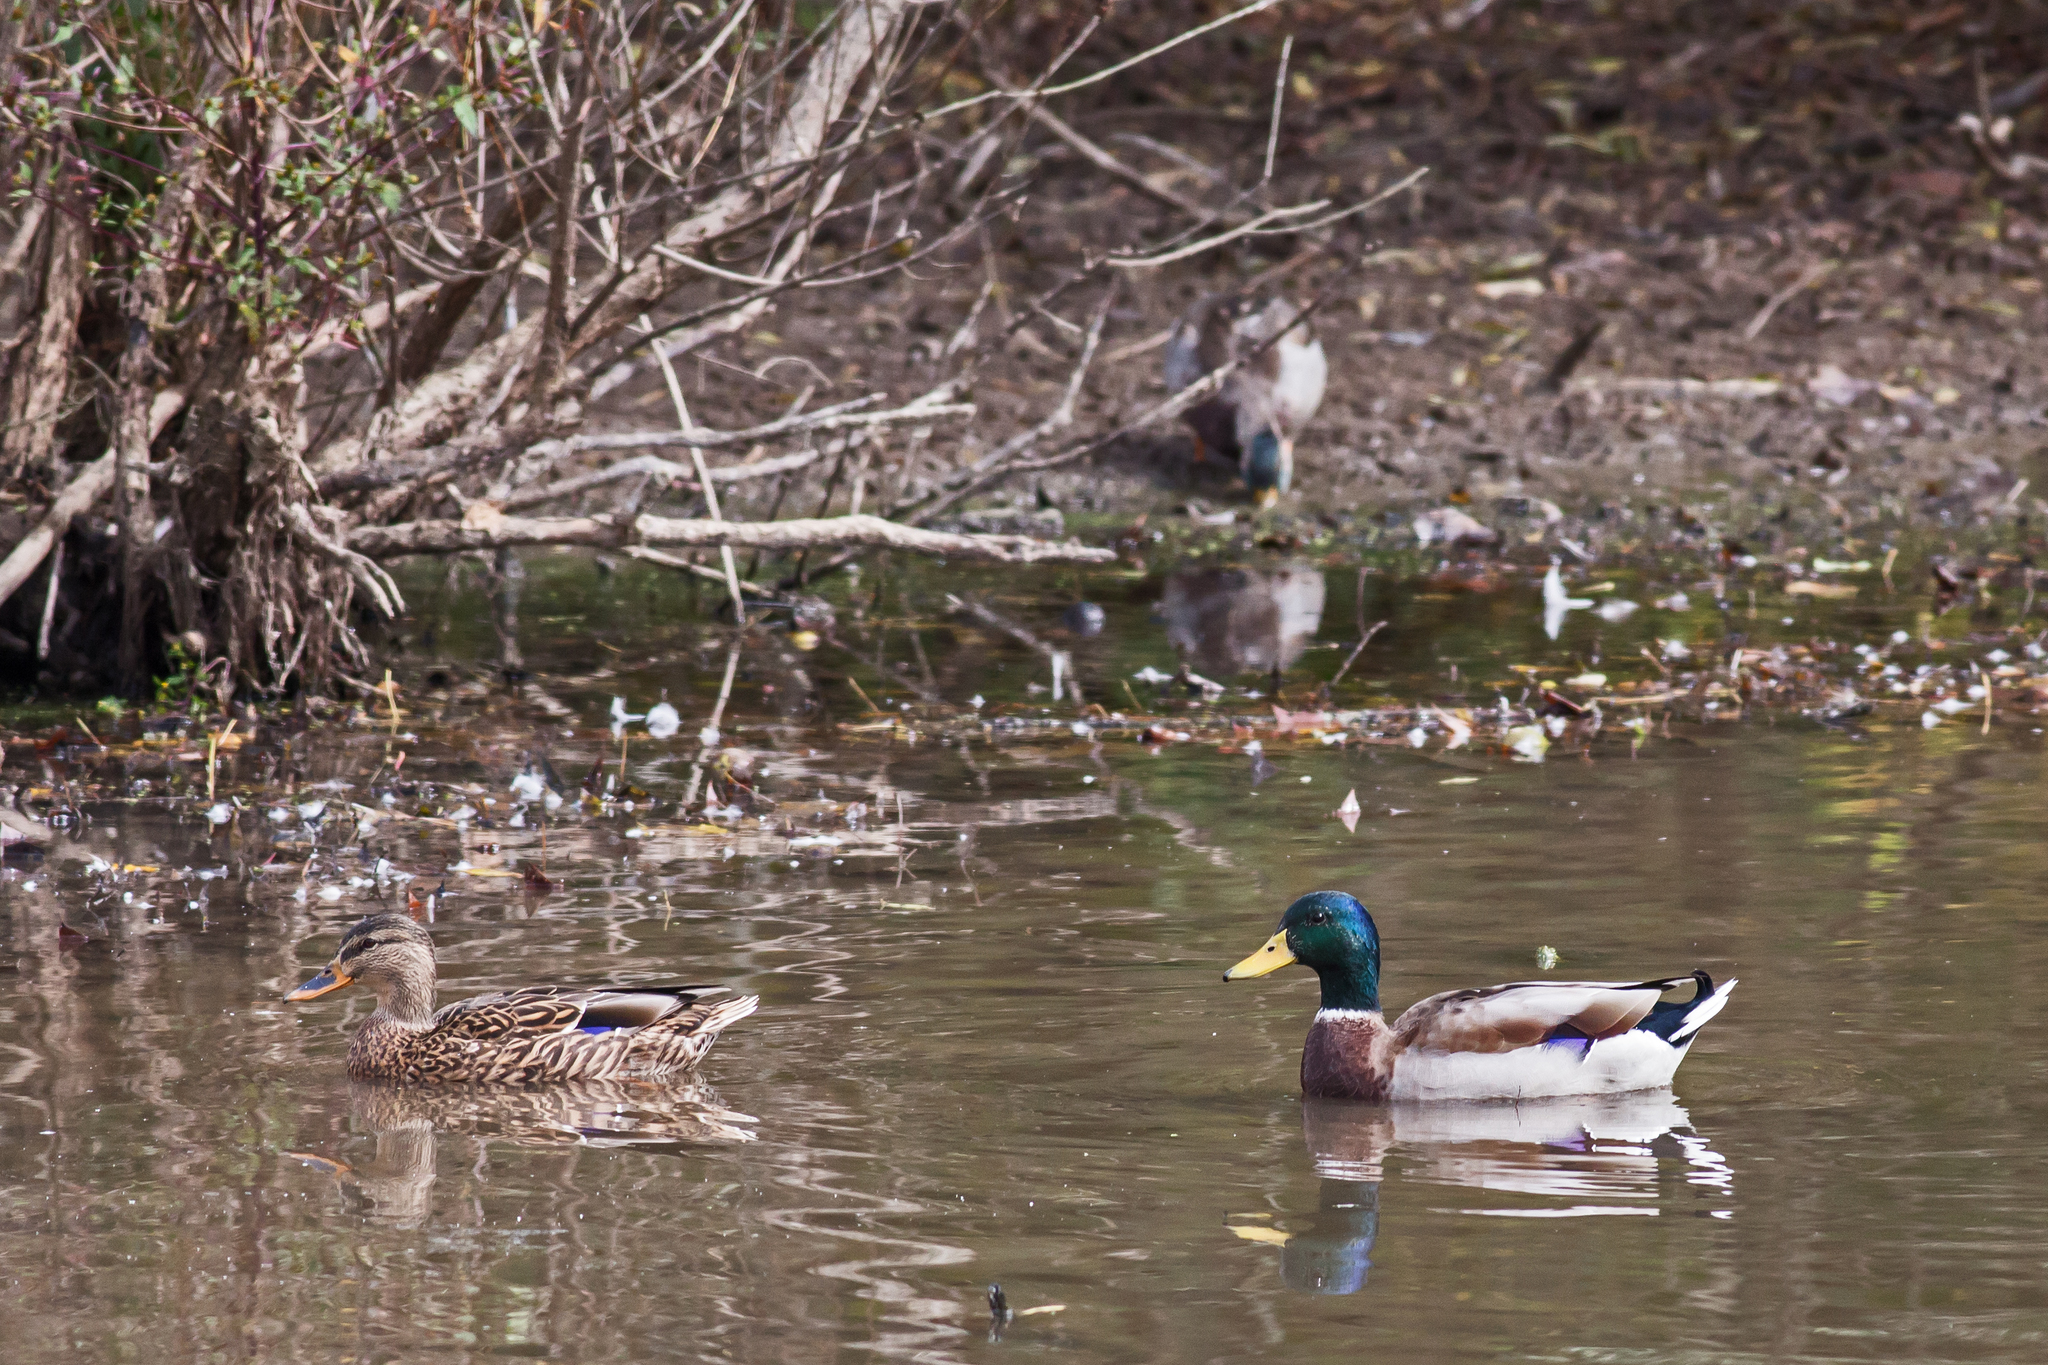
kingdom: Animalia
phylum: Chordata
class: Aves
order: Anseriformes
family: Anatidae
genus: Anas
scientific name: Anas platyrhynchos
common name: Mallard
